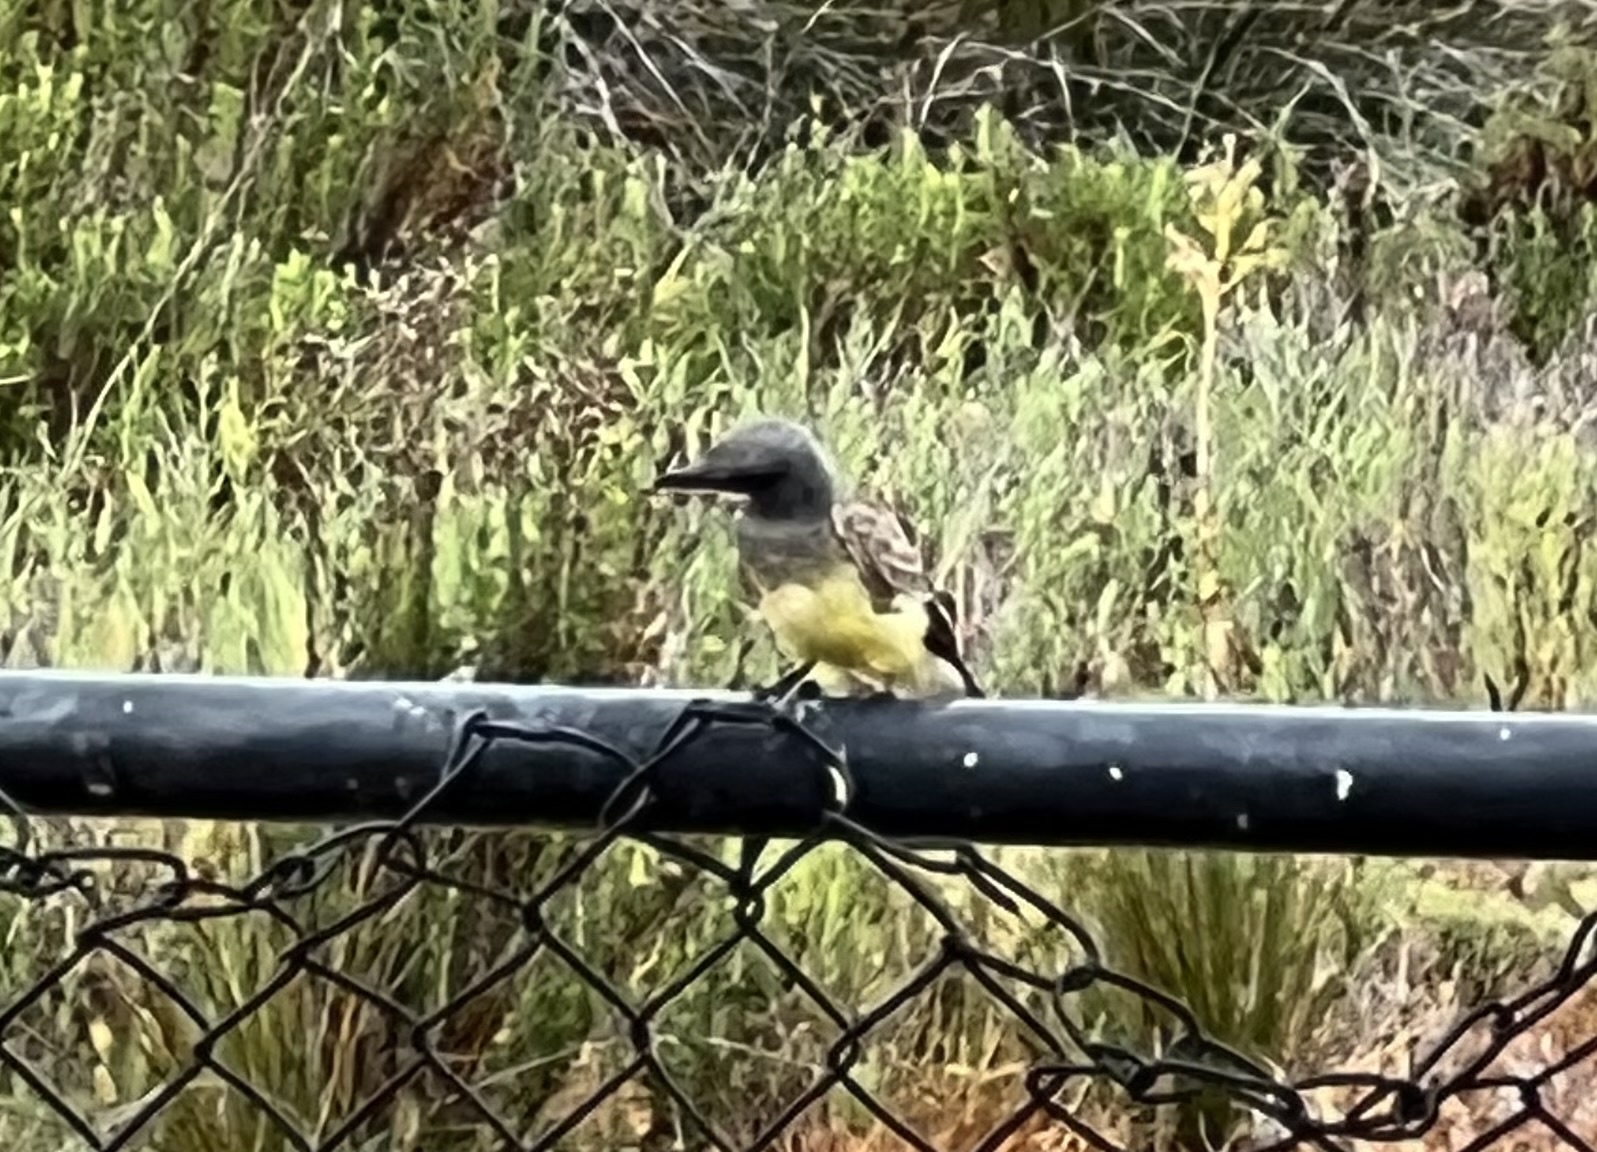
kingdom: Animalia
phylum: Chordata
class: Aves
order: Passeriformes
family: Tyrannidae
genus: Tyrannus
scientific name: Tyrannus vociferans
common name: Cassin's kingbird
